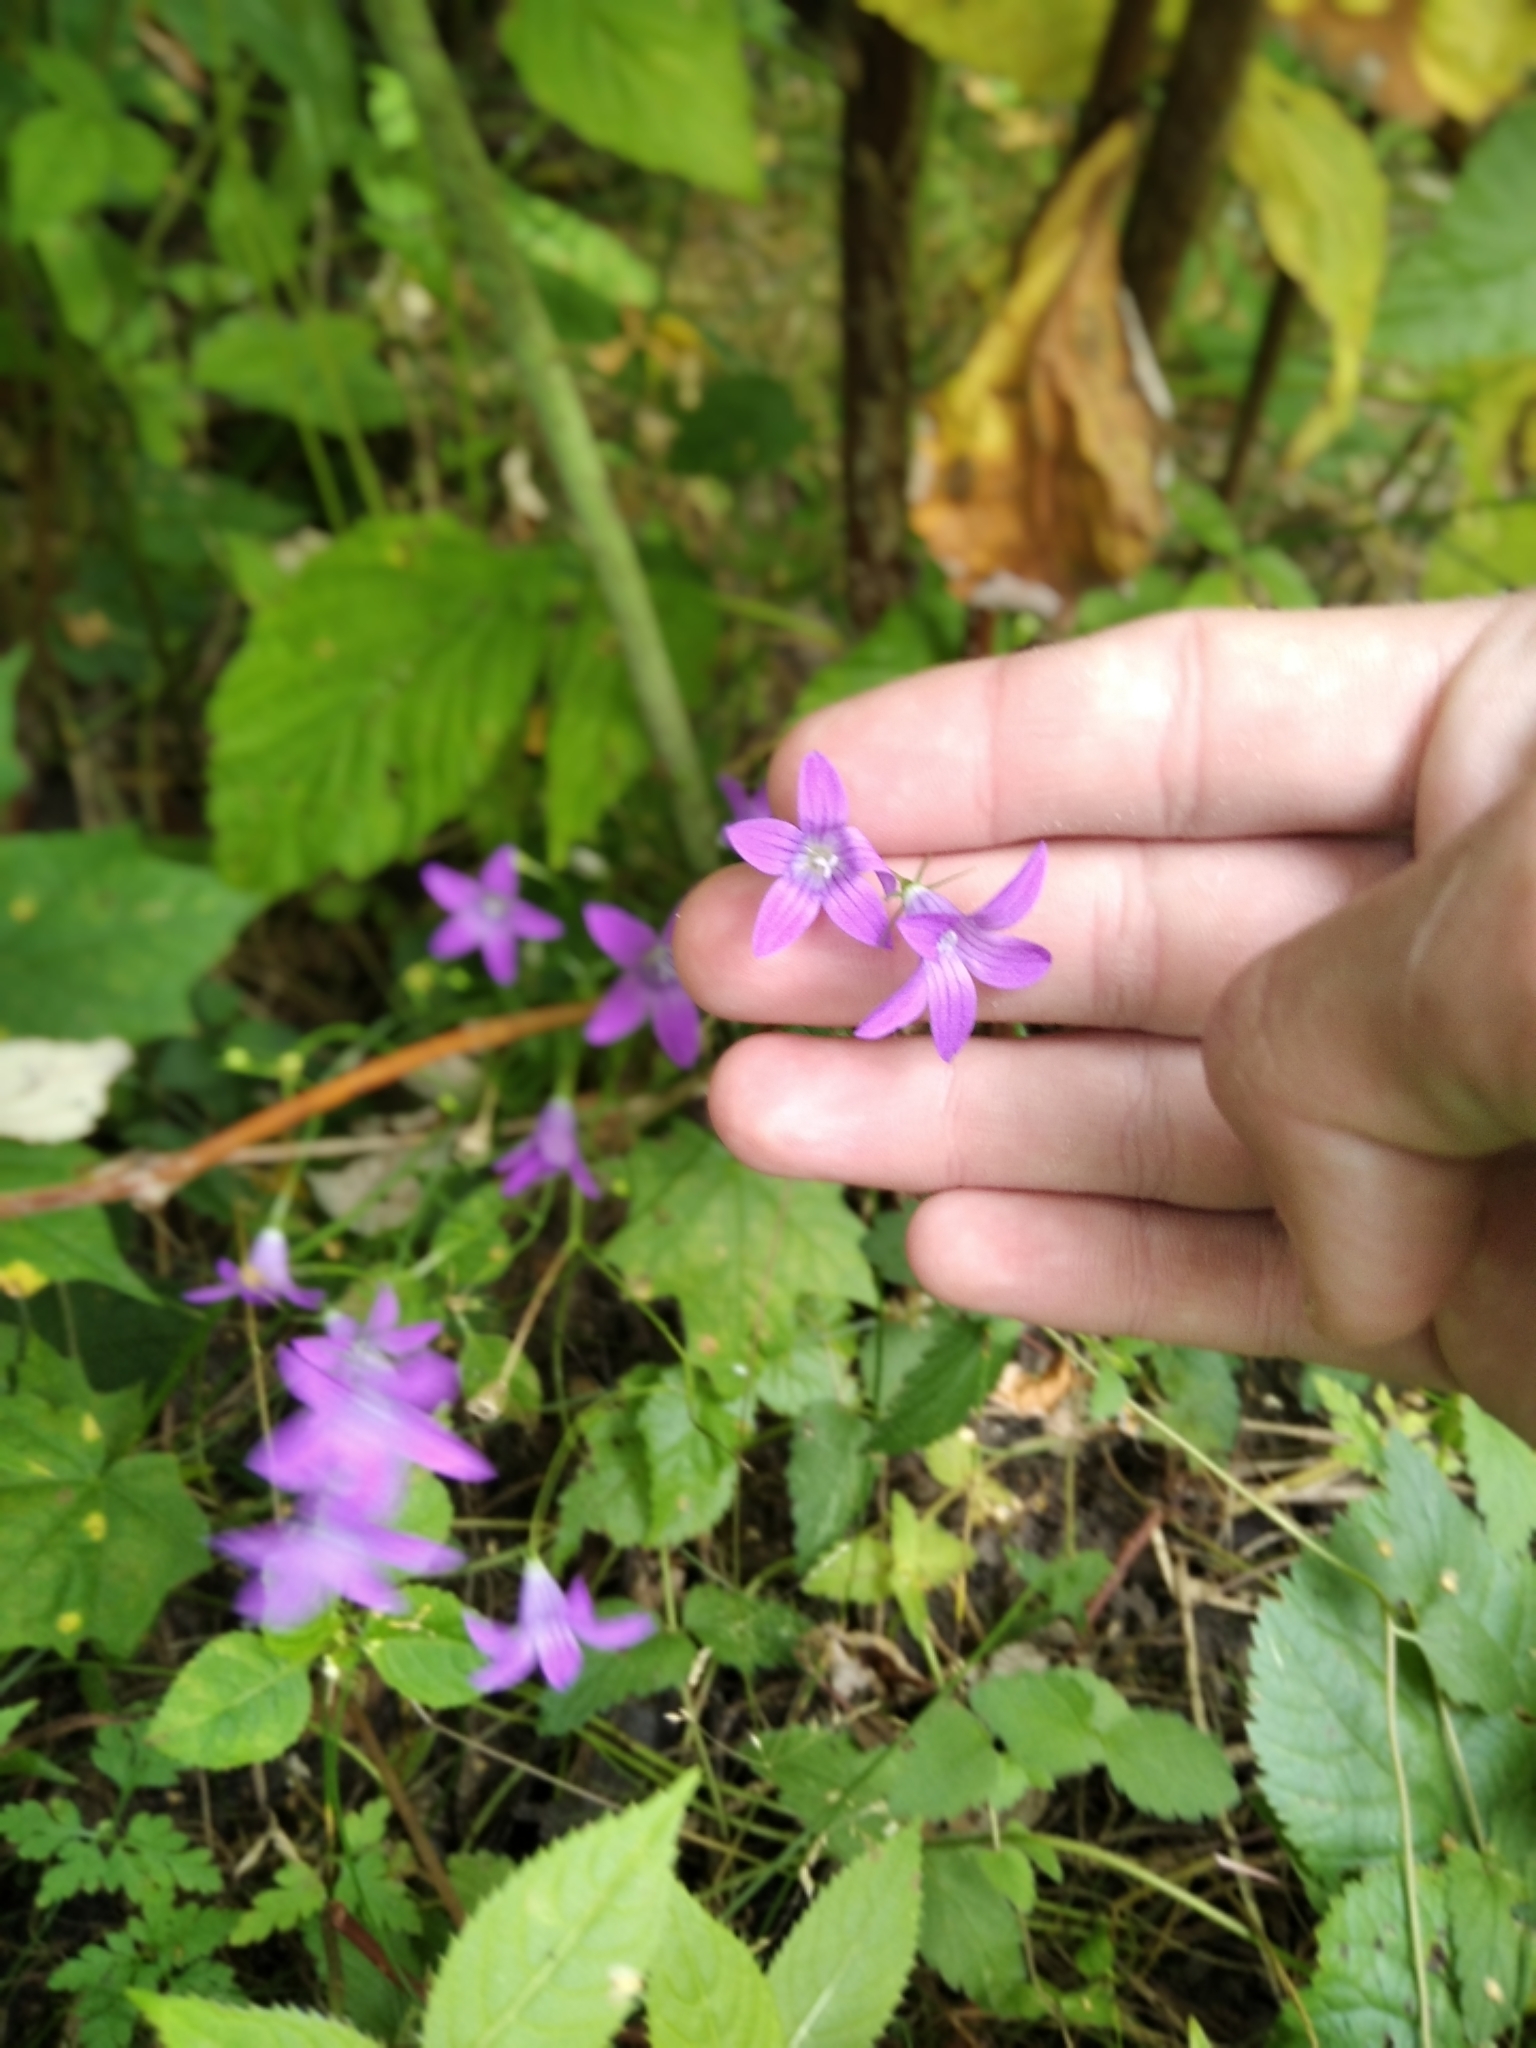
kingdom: Plantae
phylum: Tracheophyta
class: Magnoliopsida
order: Asterales
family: Campanulaceae
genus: Campanula
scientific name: Campanula patula
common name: Spreading bellflower
